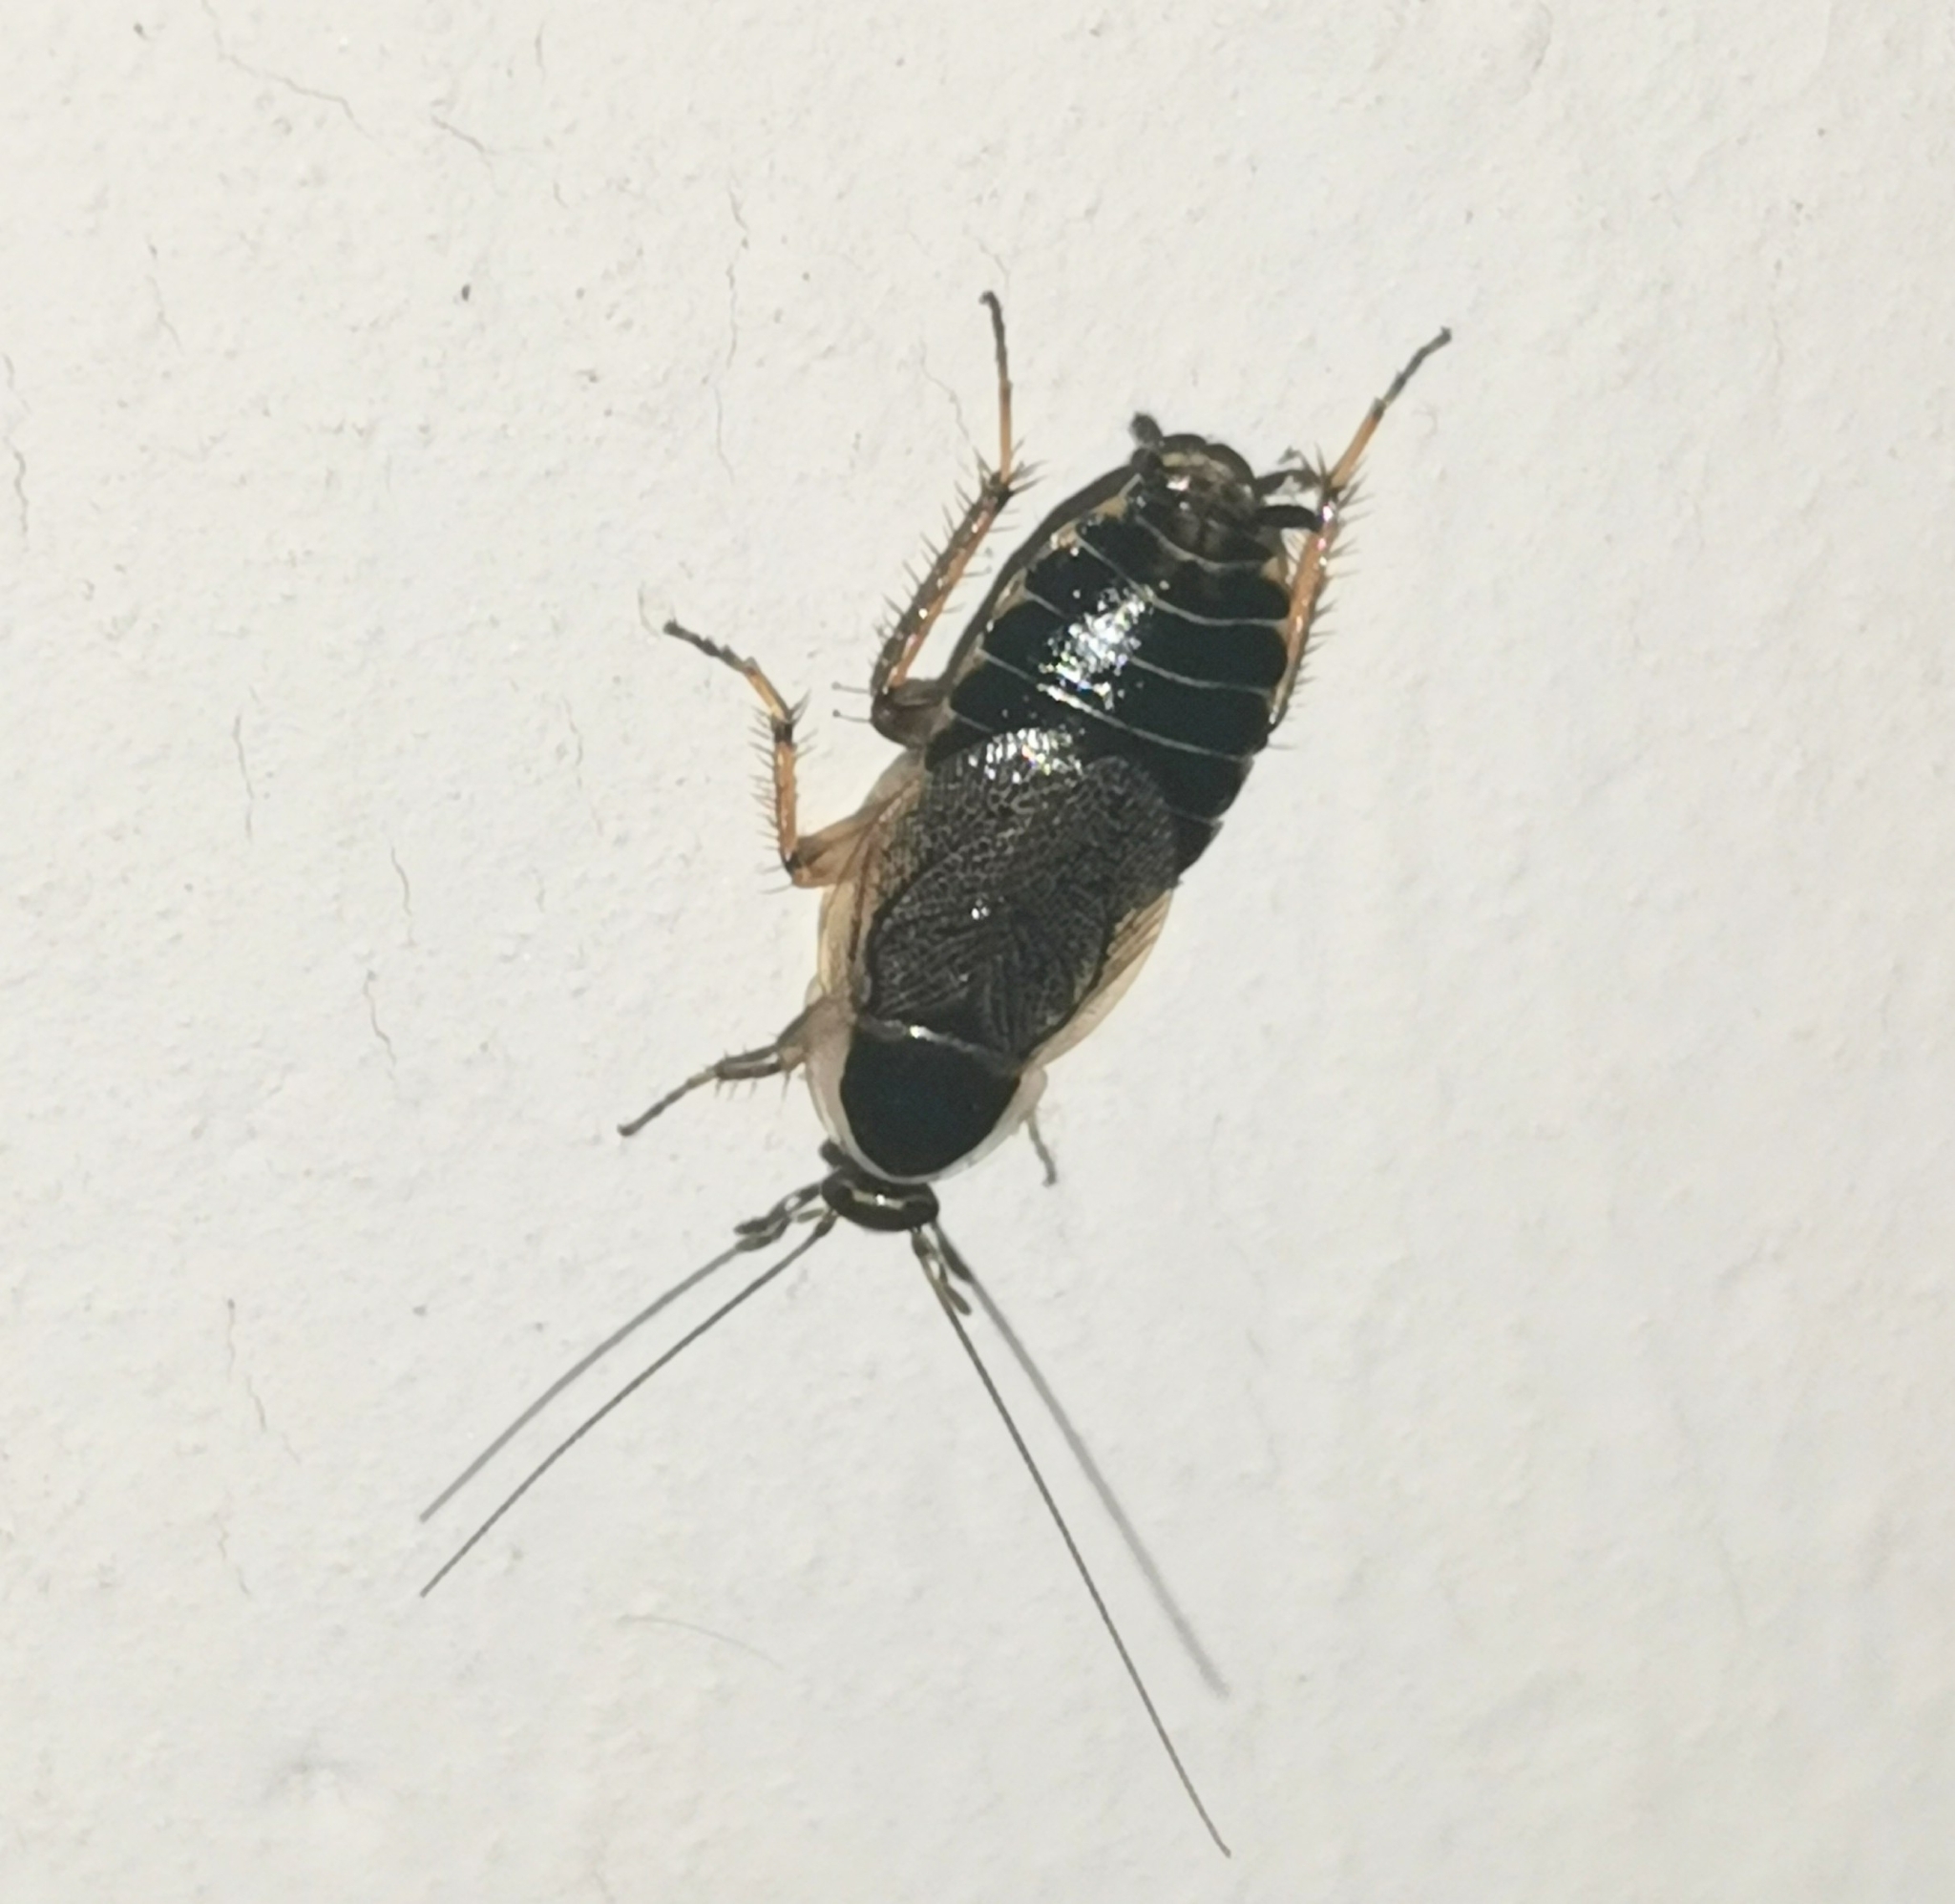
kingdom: Animalia
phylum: Arthropoda
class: Insecta
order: Blattodea
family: Ectobiidae
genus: Ectobius
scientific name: Ectobius sylvestris
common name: Forest cockroach
